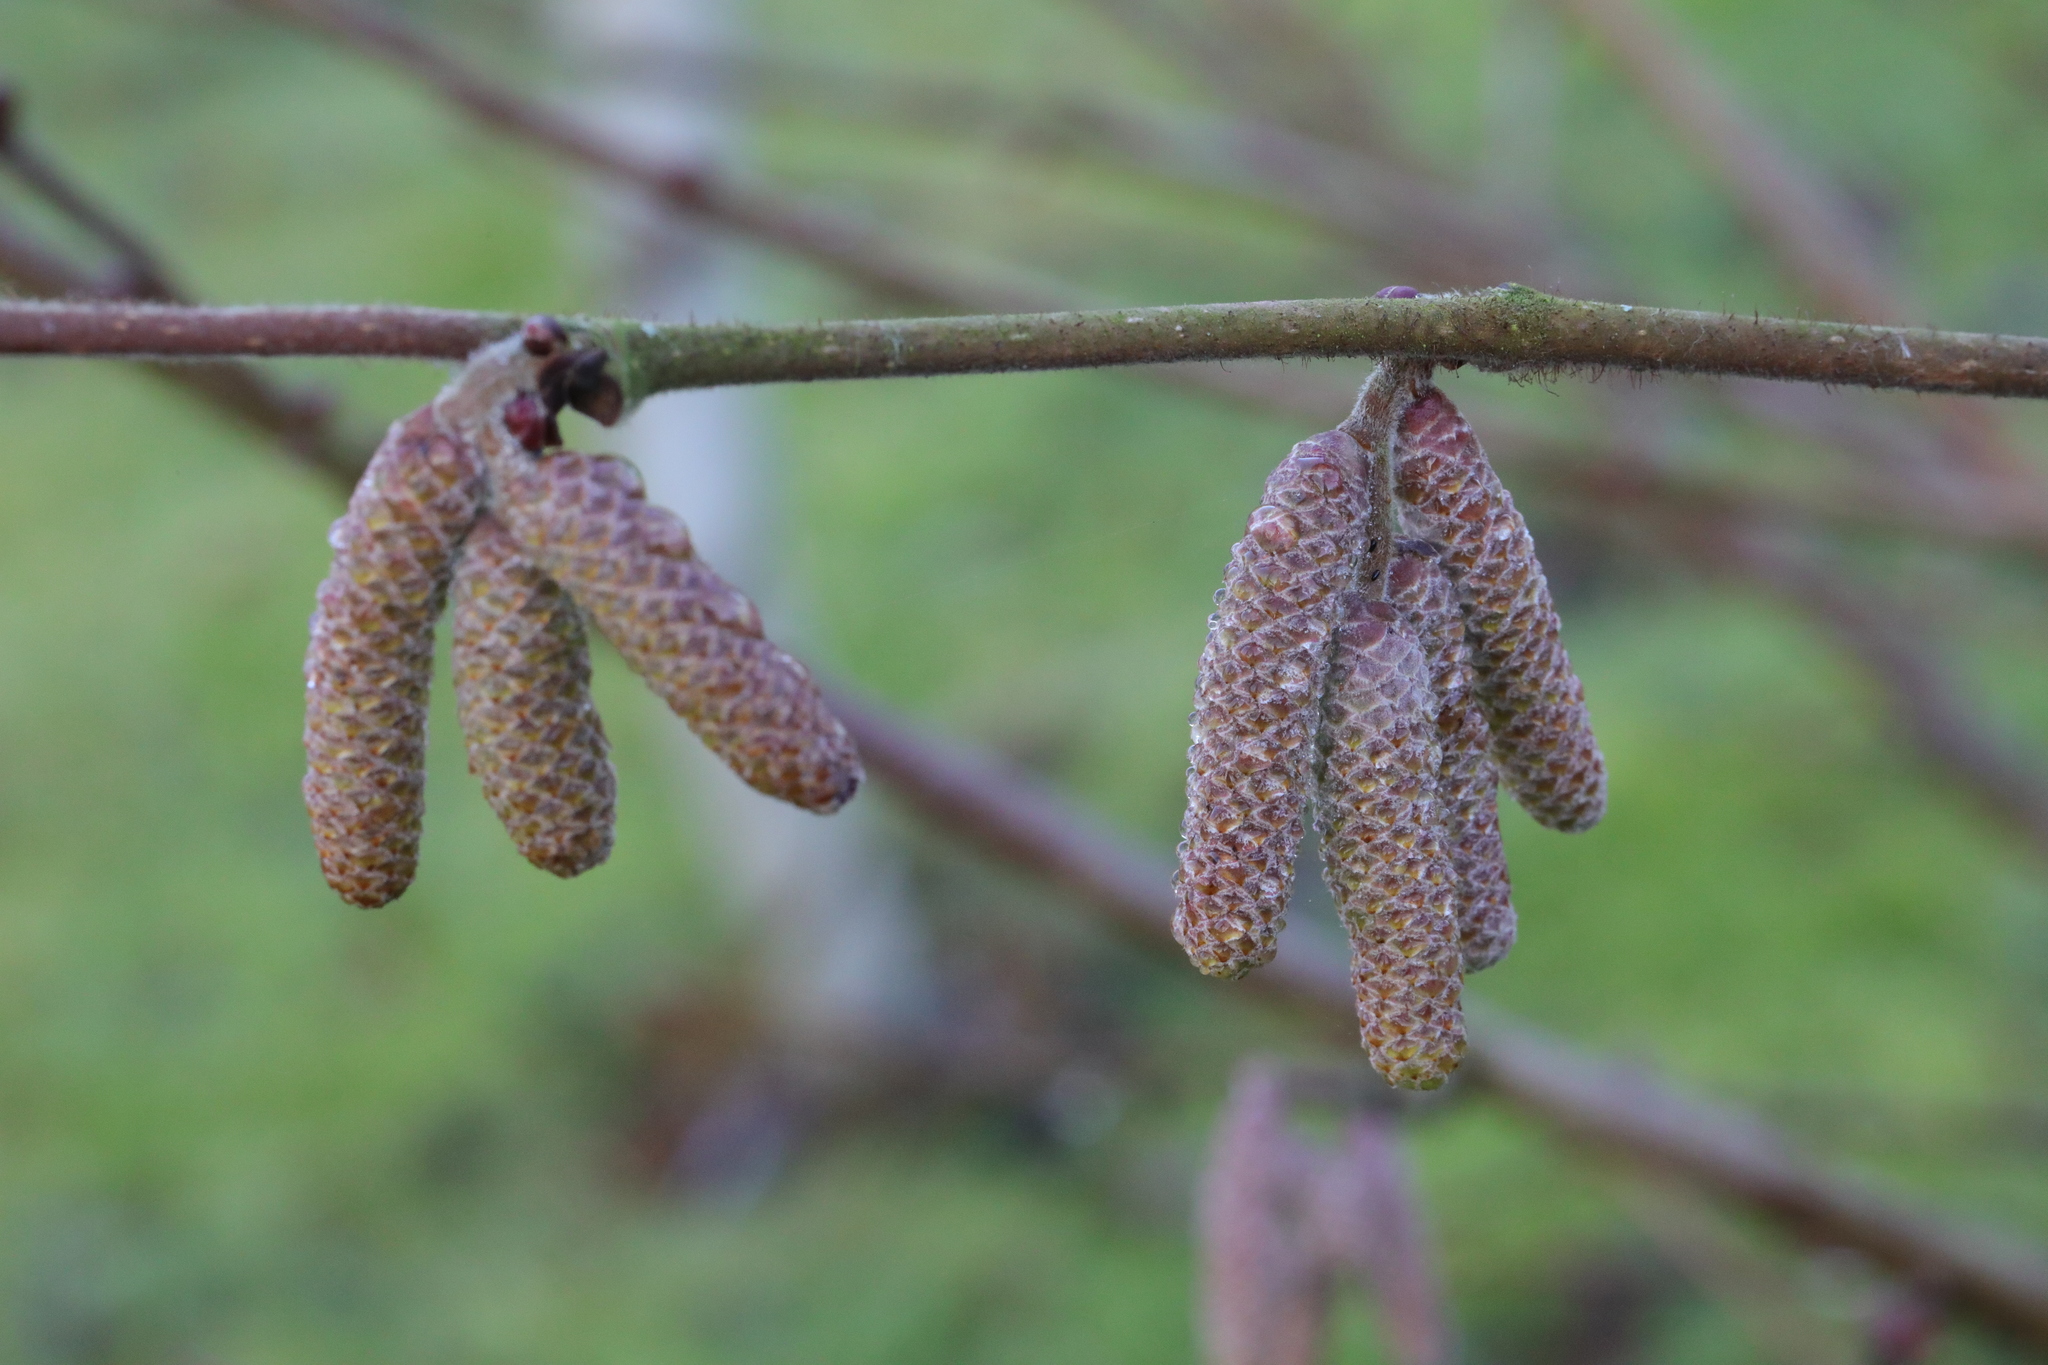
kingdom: Plantae
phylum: Tracheophyta
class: Magnoliopsida
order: Fagales
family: Betulaceae
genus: Corylus
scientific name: Corylus avellana
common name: European hazel
